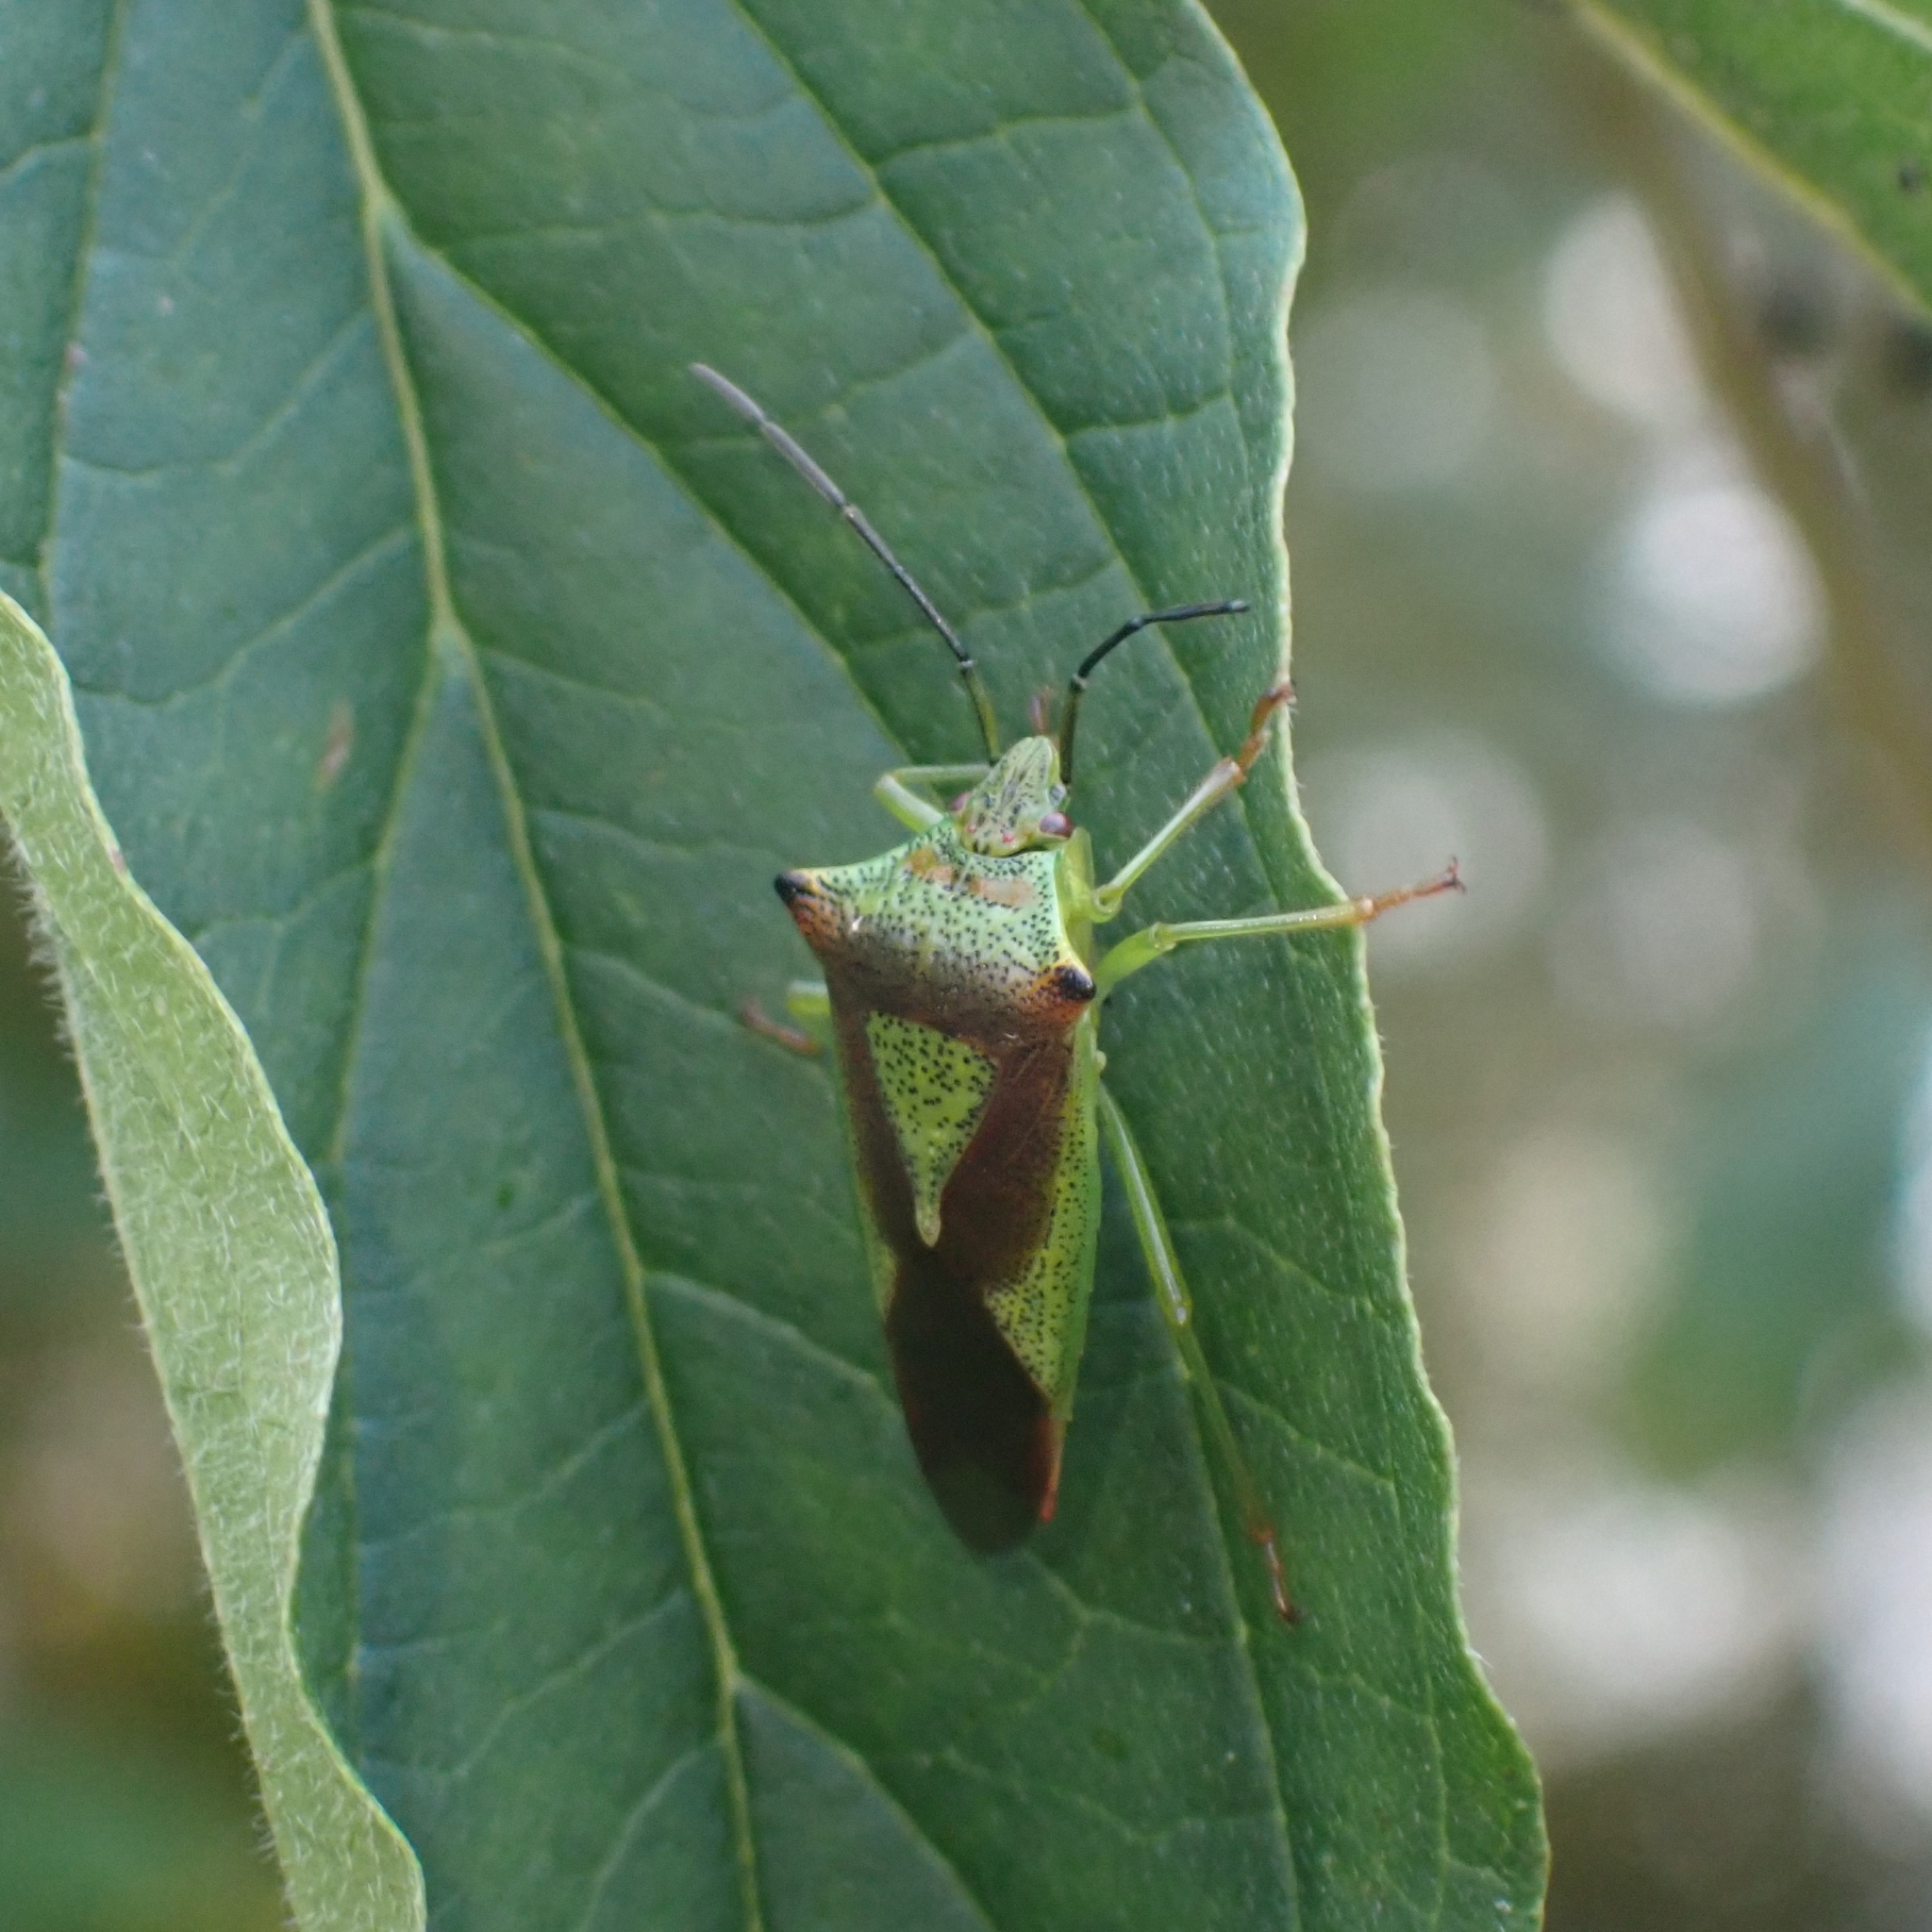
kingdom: Animalia
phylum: Arthropoda
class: Insecta
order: Hemiptera
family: Acanthosomatidae
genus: Acanthosoma
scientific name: Acanthosoma haemorrhoidale
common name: Hawthorn shieldbug
